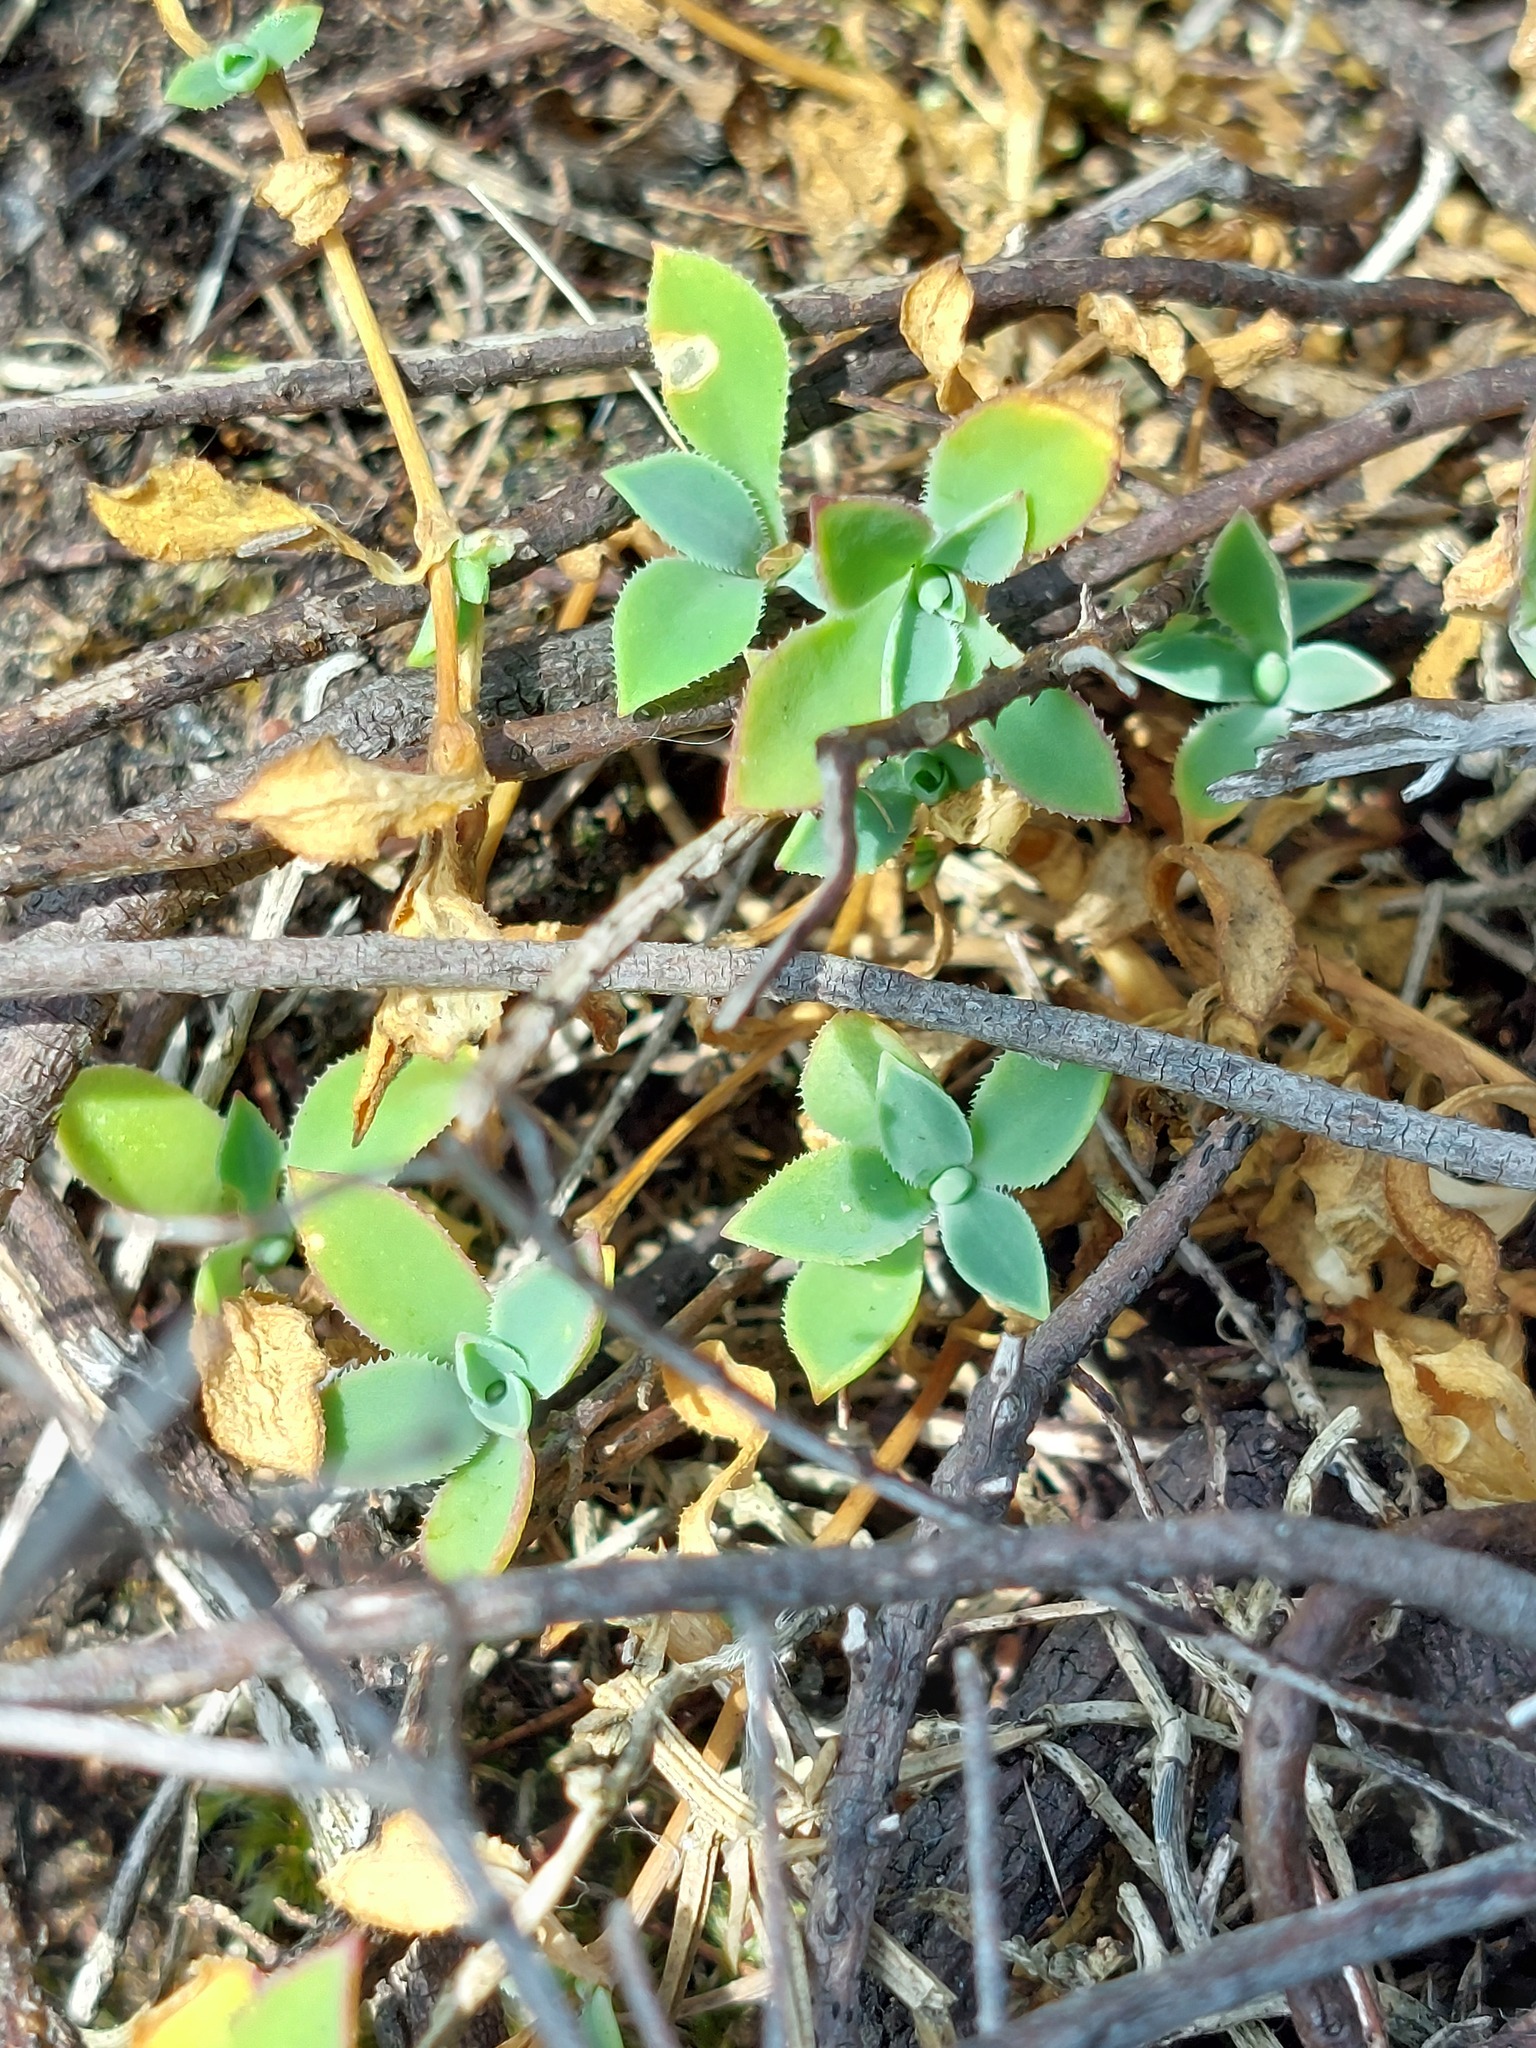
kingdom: Plantae
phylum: Tracheophyta
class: Magnoliopsida
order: Caryophyllales
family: Caryophyllaceae
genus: Silene
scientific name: Silene uniflora
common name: Sea campion
